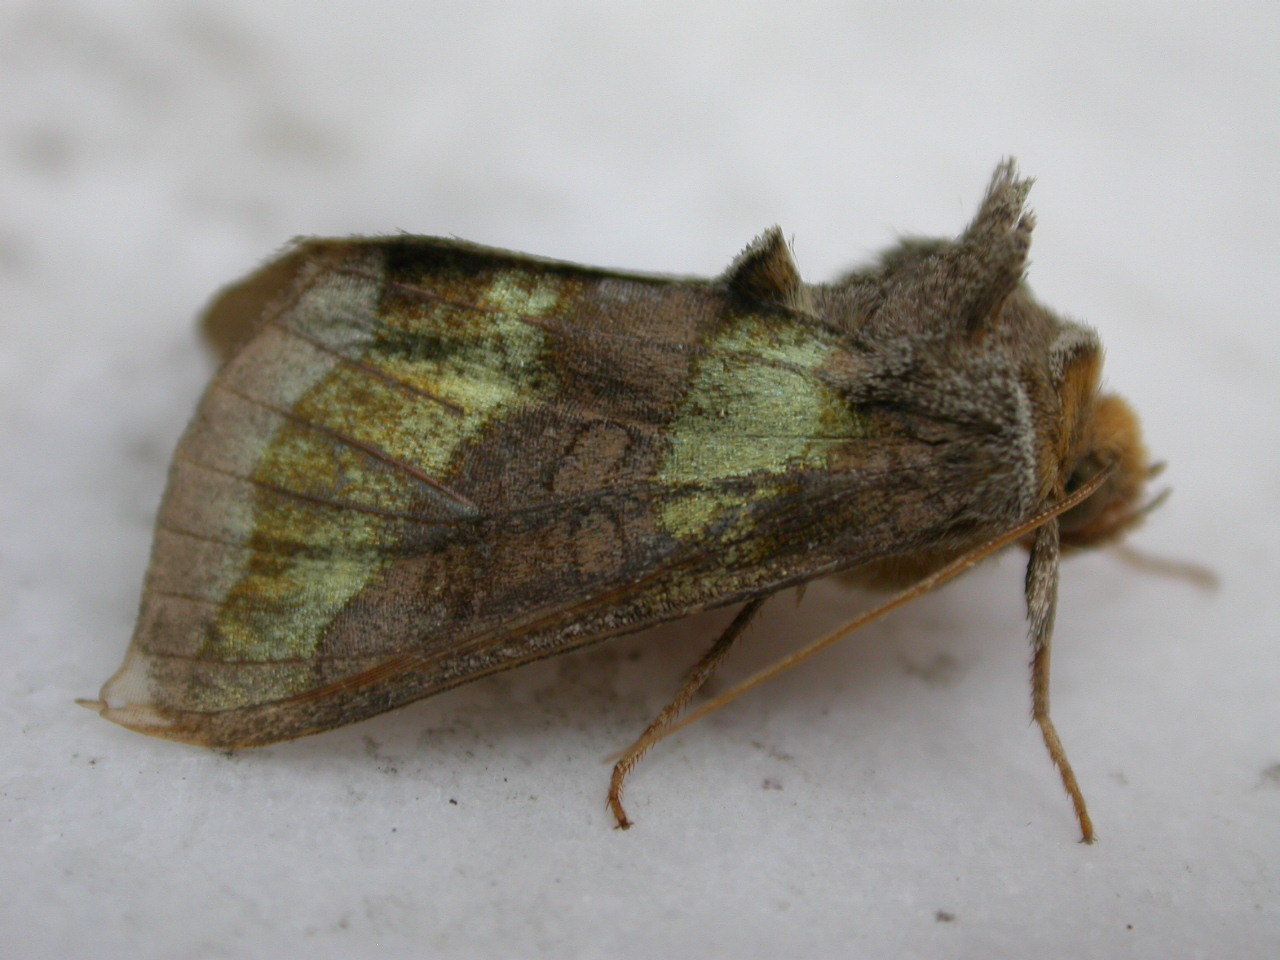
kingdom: Animalia
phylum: Arthropoda
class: Insecta
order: Lepidoptera
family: Noctuidae
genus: Diachrysia
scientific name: Diachrysia chrysitis
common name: Burnished brass
